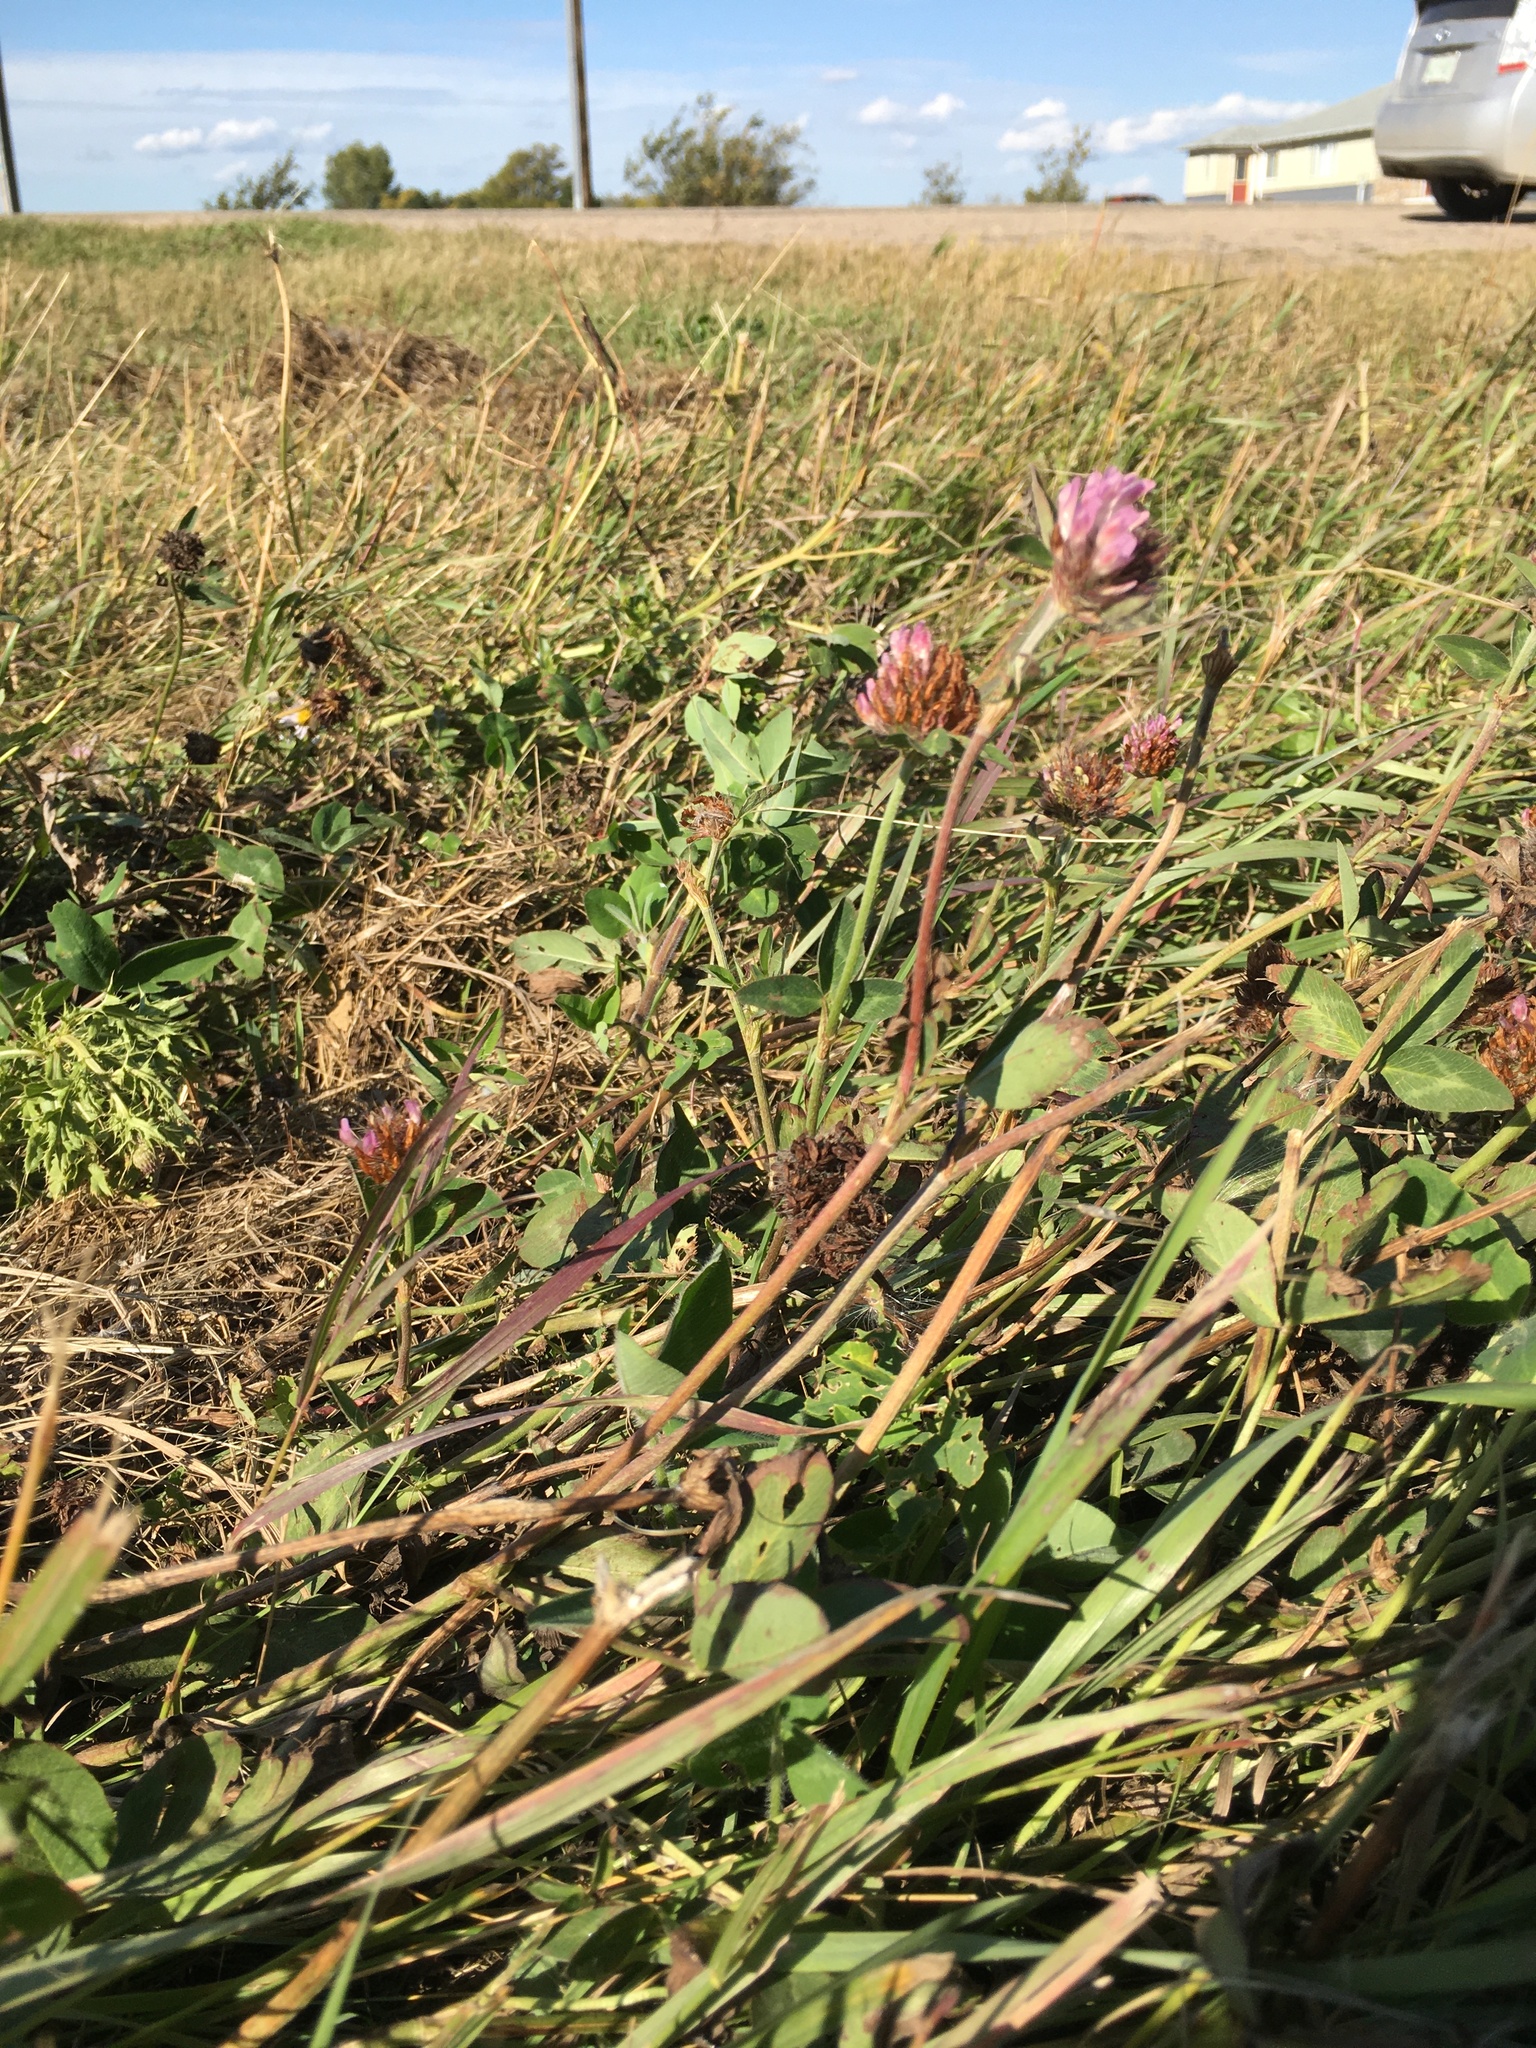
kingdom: Plantae
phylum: Tracheophyta
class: Magnoliopsida
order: Fabales
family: Fabaceae
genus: Trifolium
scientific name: Trifolium pratense
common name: Red clover
